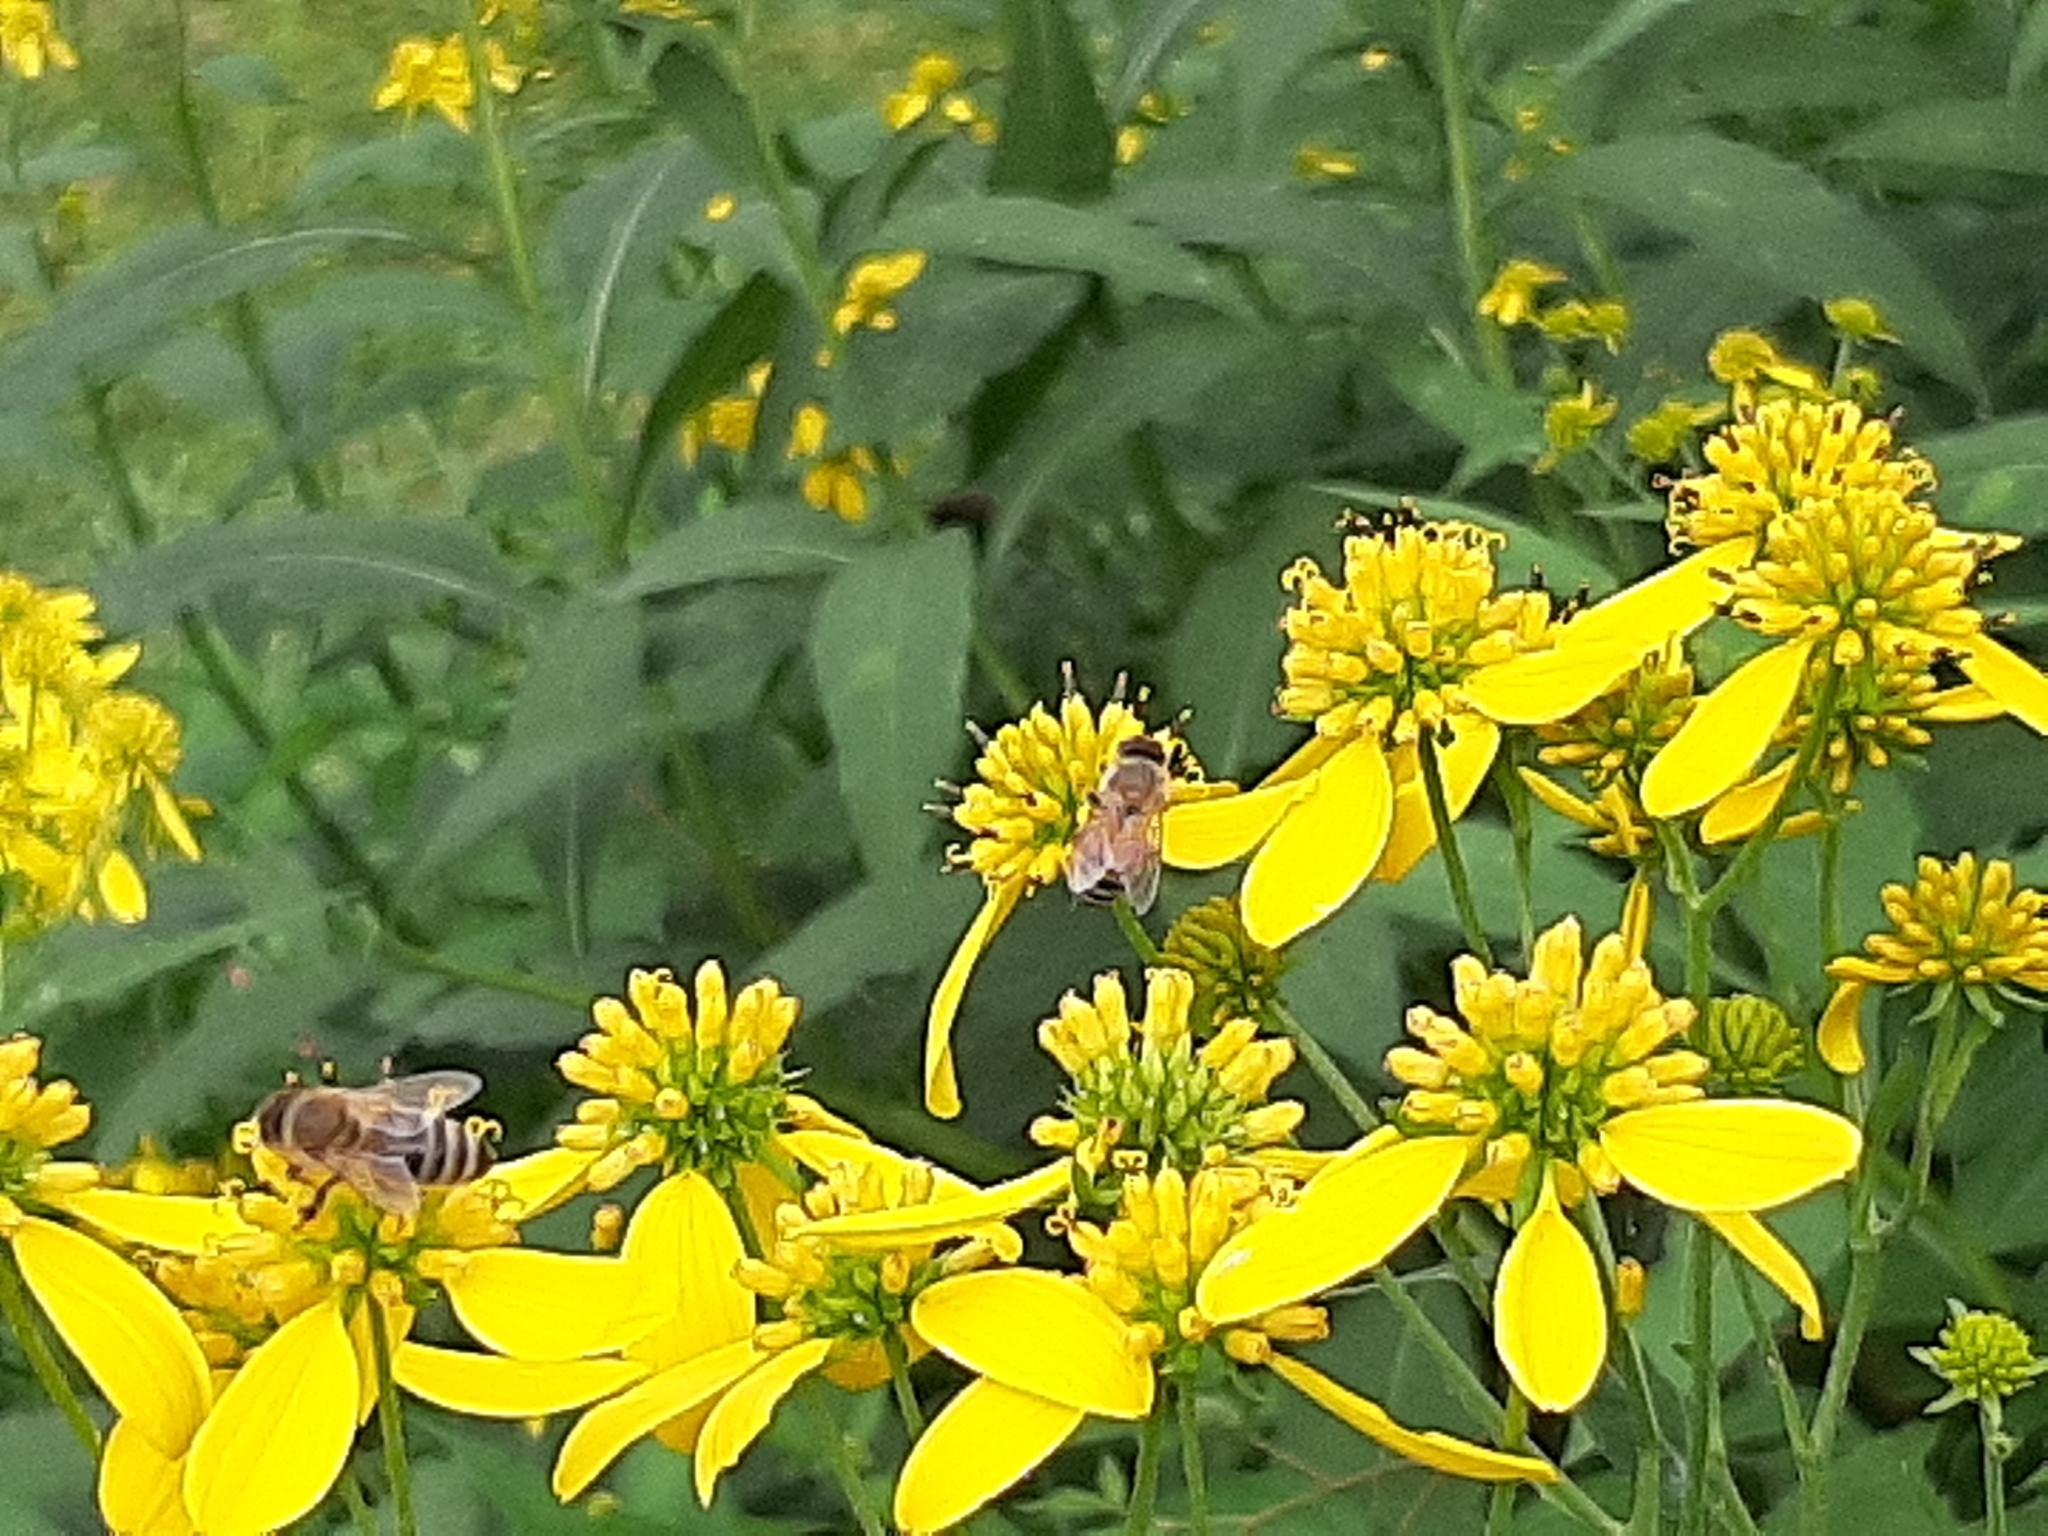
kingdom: Animalia
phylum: Arthropoda
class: Insecta
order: Hymenoptera
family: Apidae
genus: Apis
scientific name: Apis mellifera
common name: Honey bee
